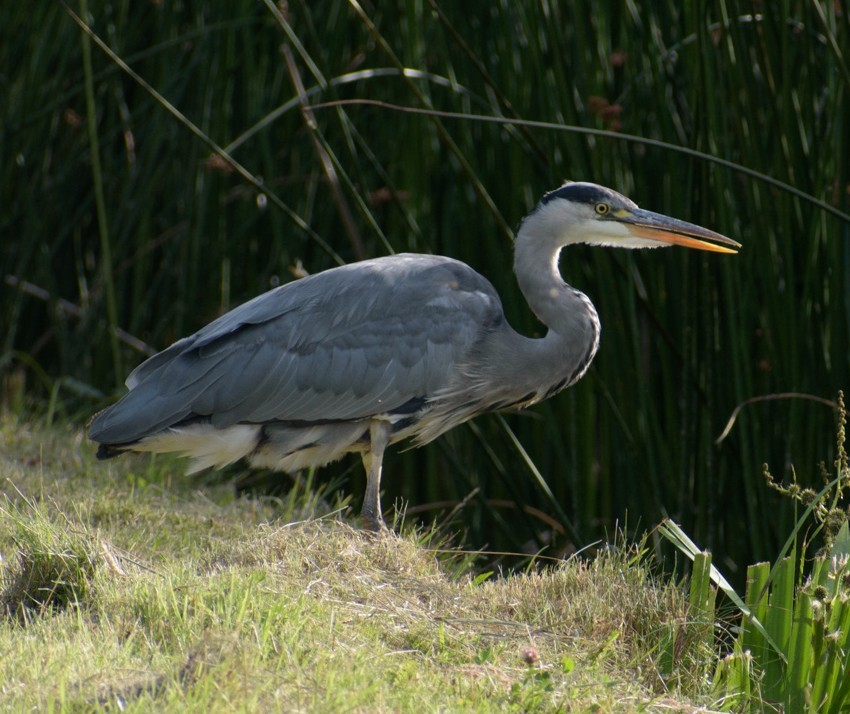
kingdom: Animalia
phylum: Chordata
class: Aves
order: Pelecaniformes
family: Ardeidae
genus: Ardea
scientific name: Ardea cinerea
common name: Grey heron
